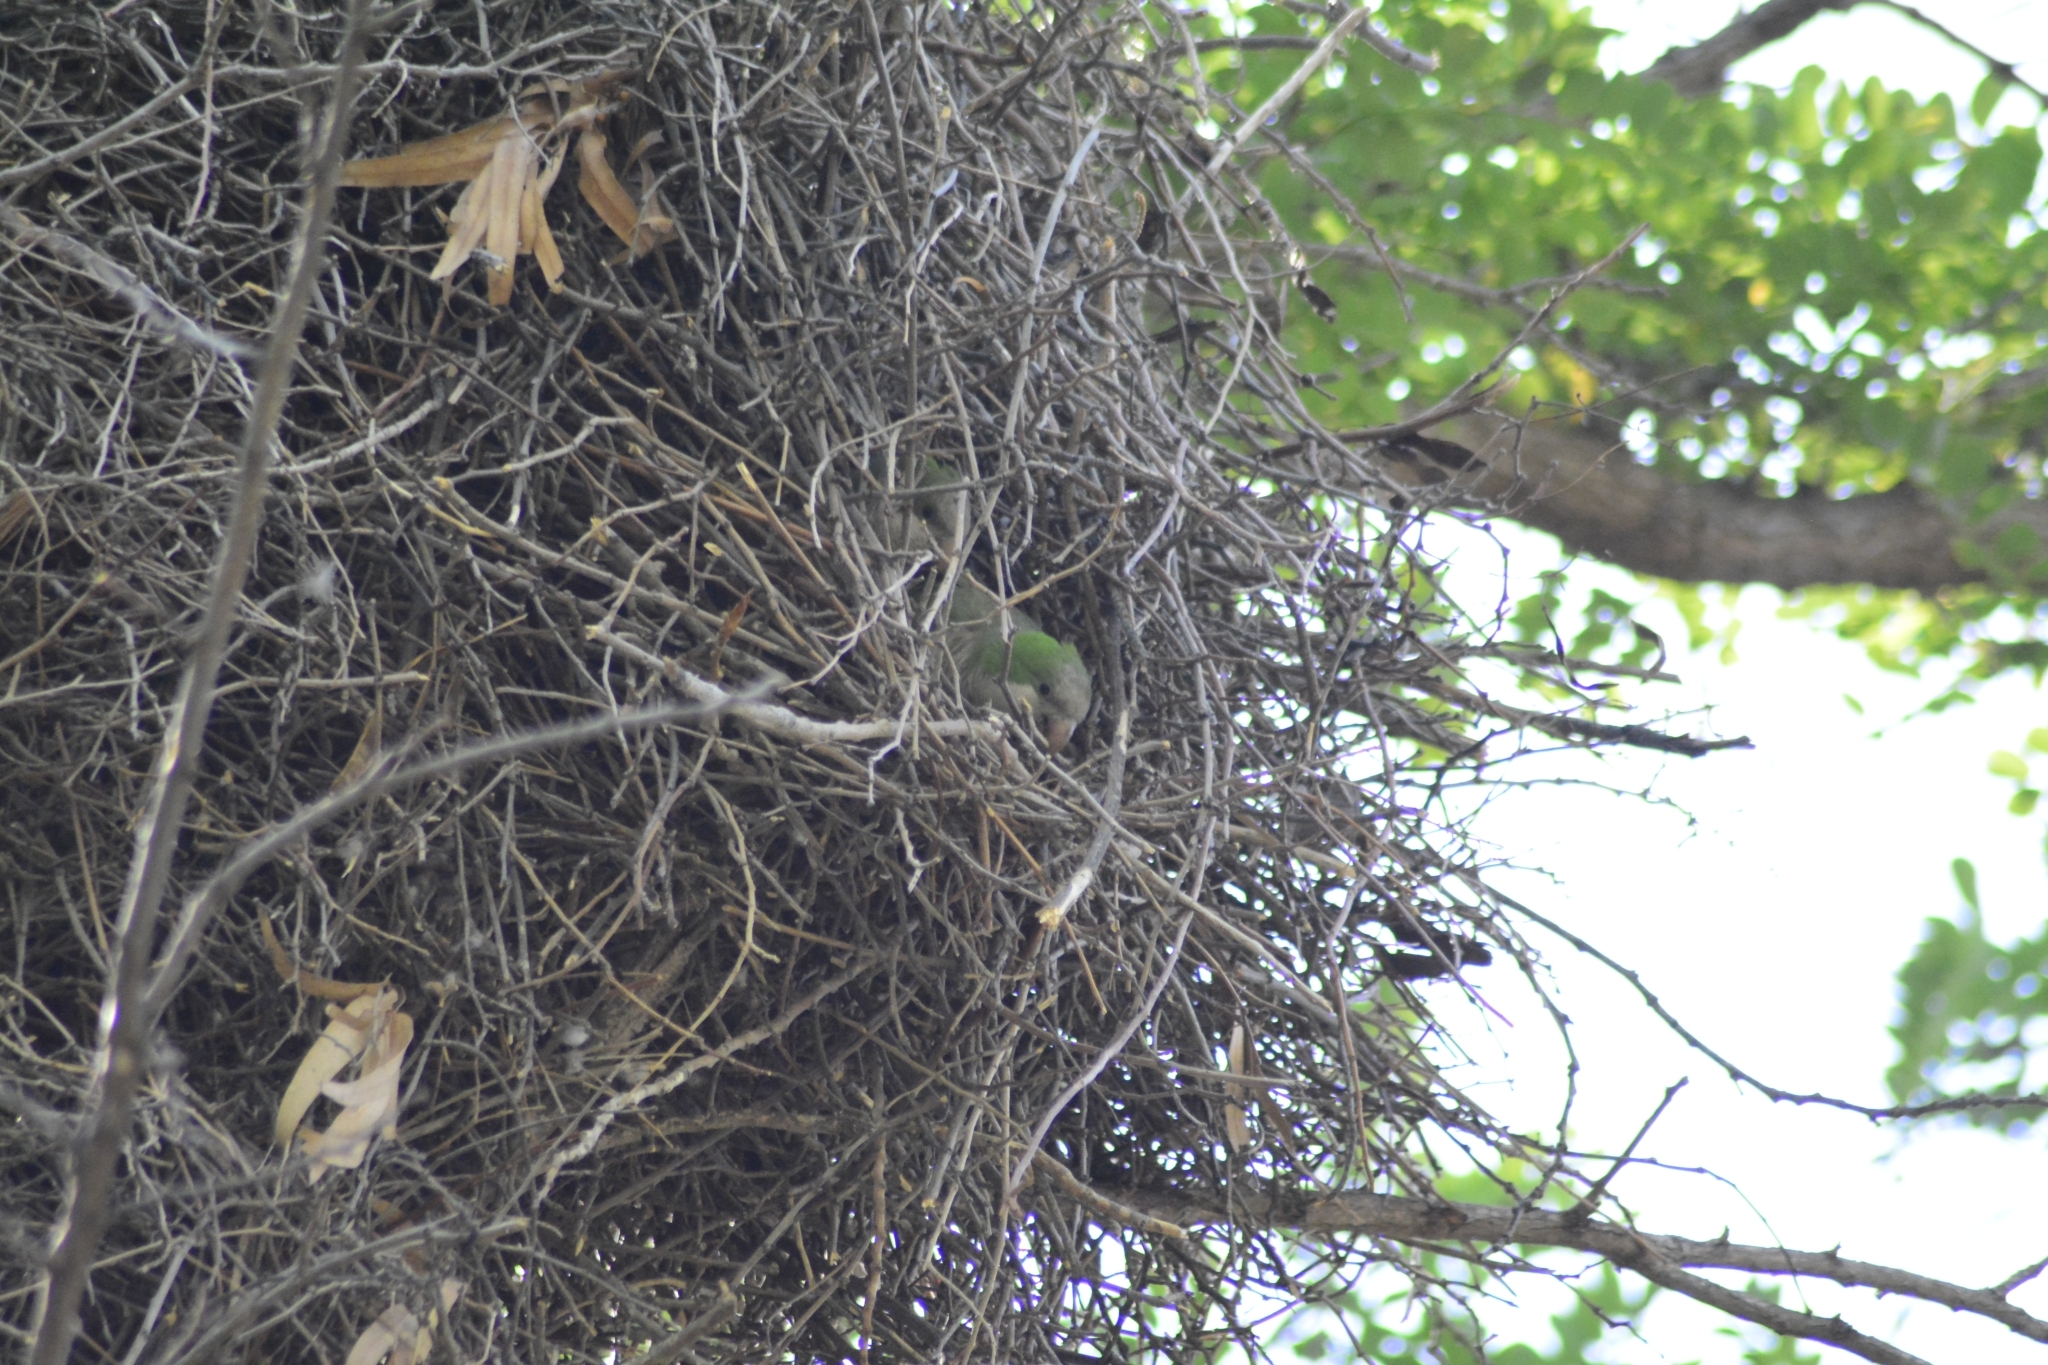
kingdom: Animalia
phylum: Chordata
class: Aves
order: Psittaciformes
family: Psittacidae
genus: Myiopsitta
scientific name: Myiopsitta monachus
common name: Monk parakeet
